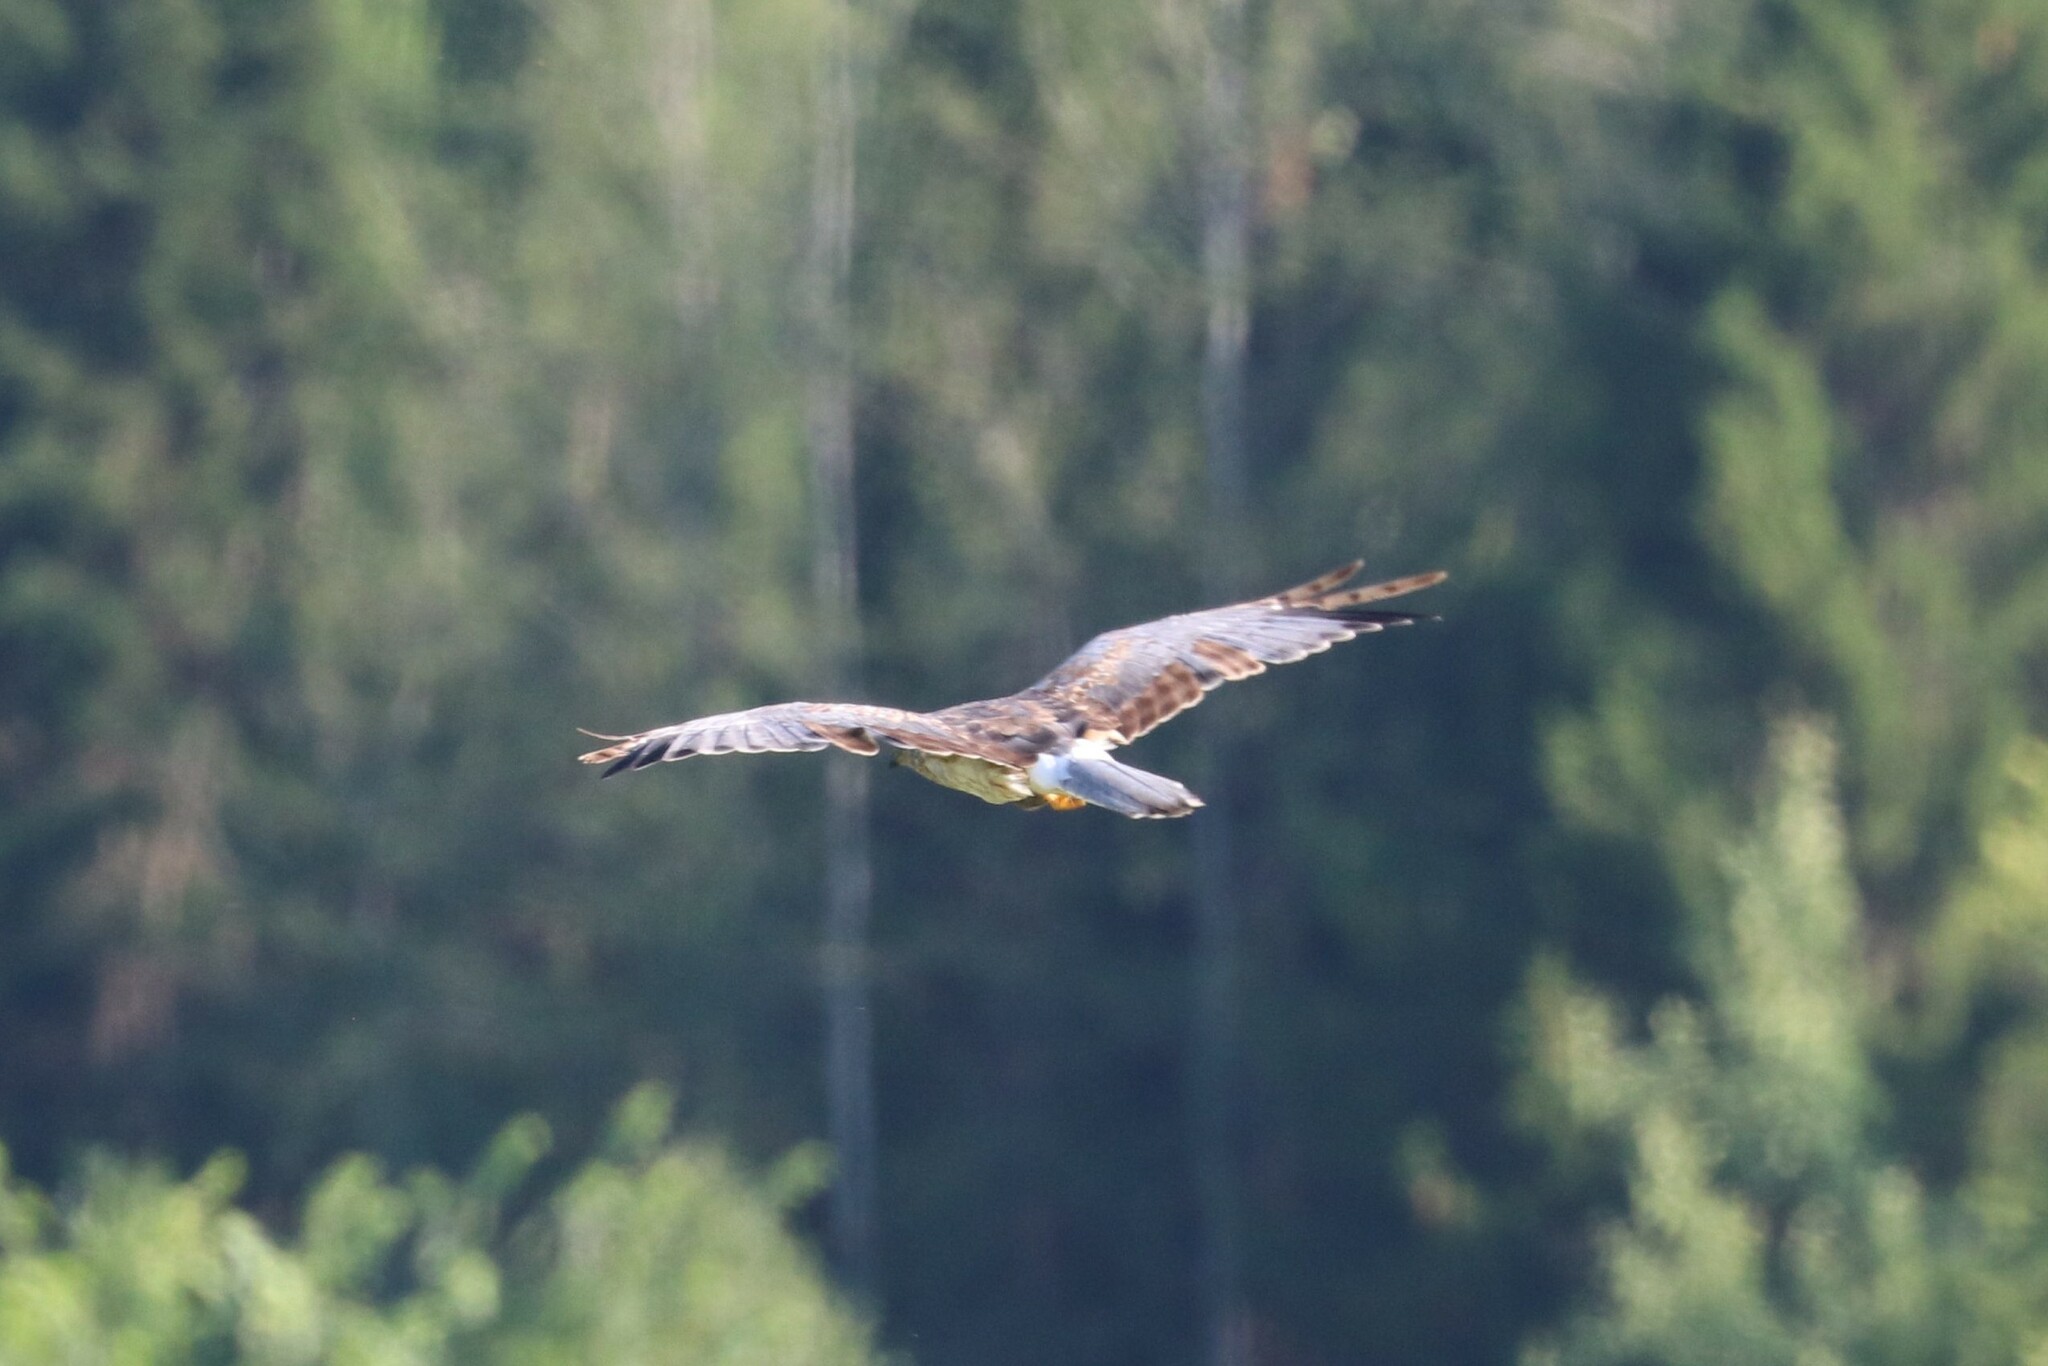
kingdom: Animalia
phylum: Chordata
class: Aves
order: Accipitriformes
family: Accipitridae
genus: Circus
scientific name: Circus cyaneus
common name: Hen harrier
